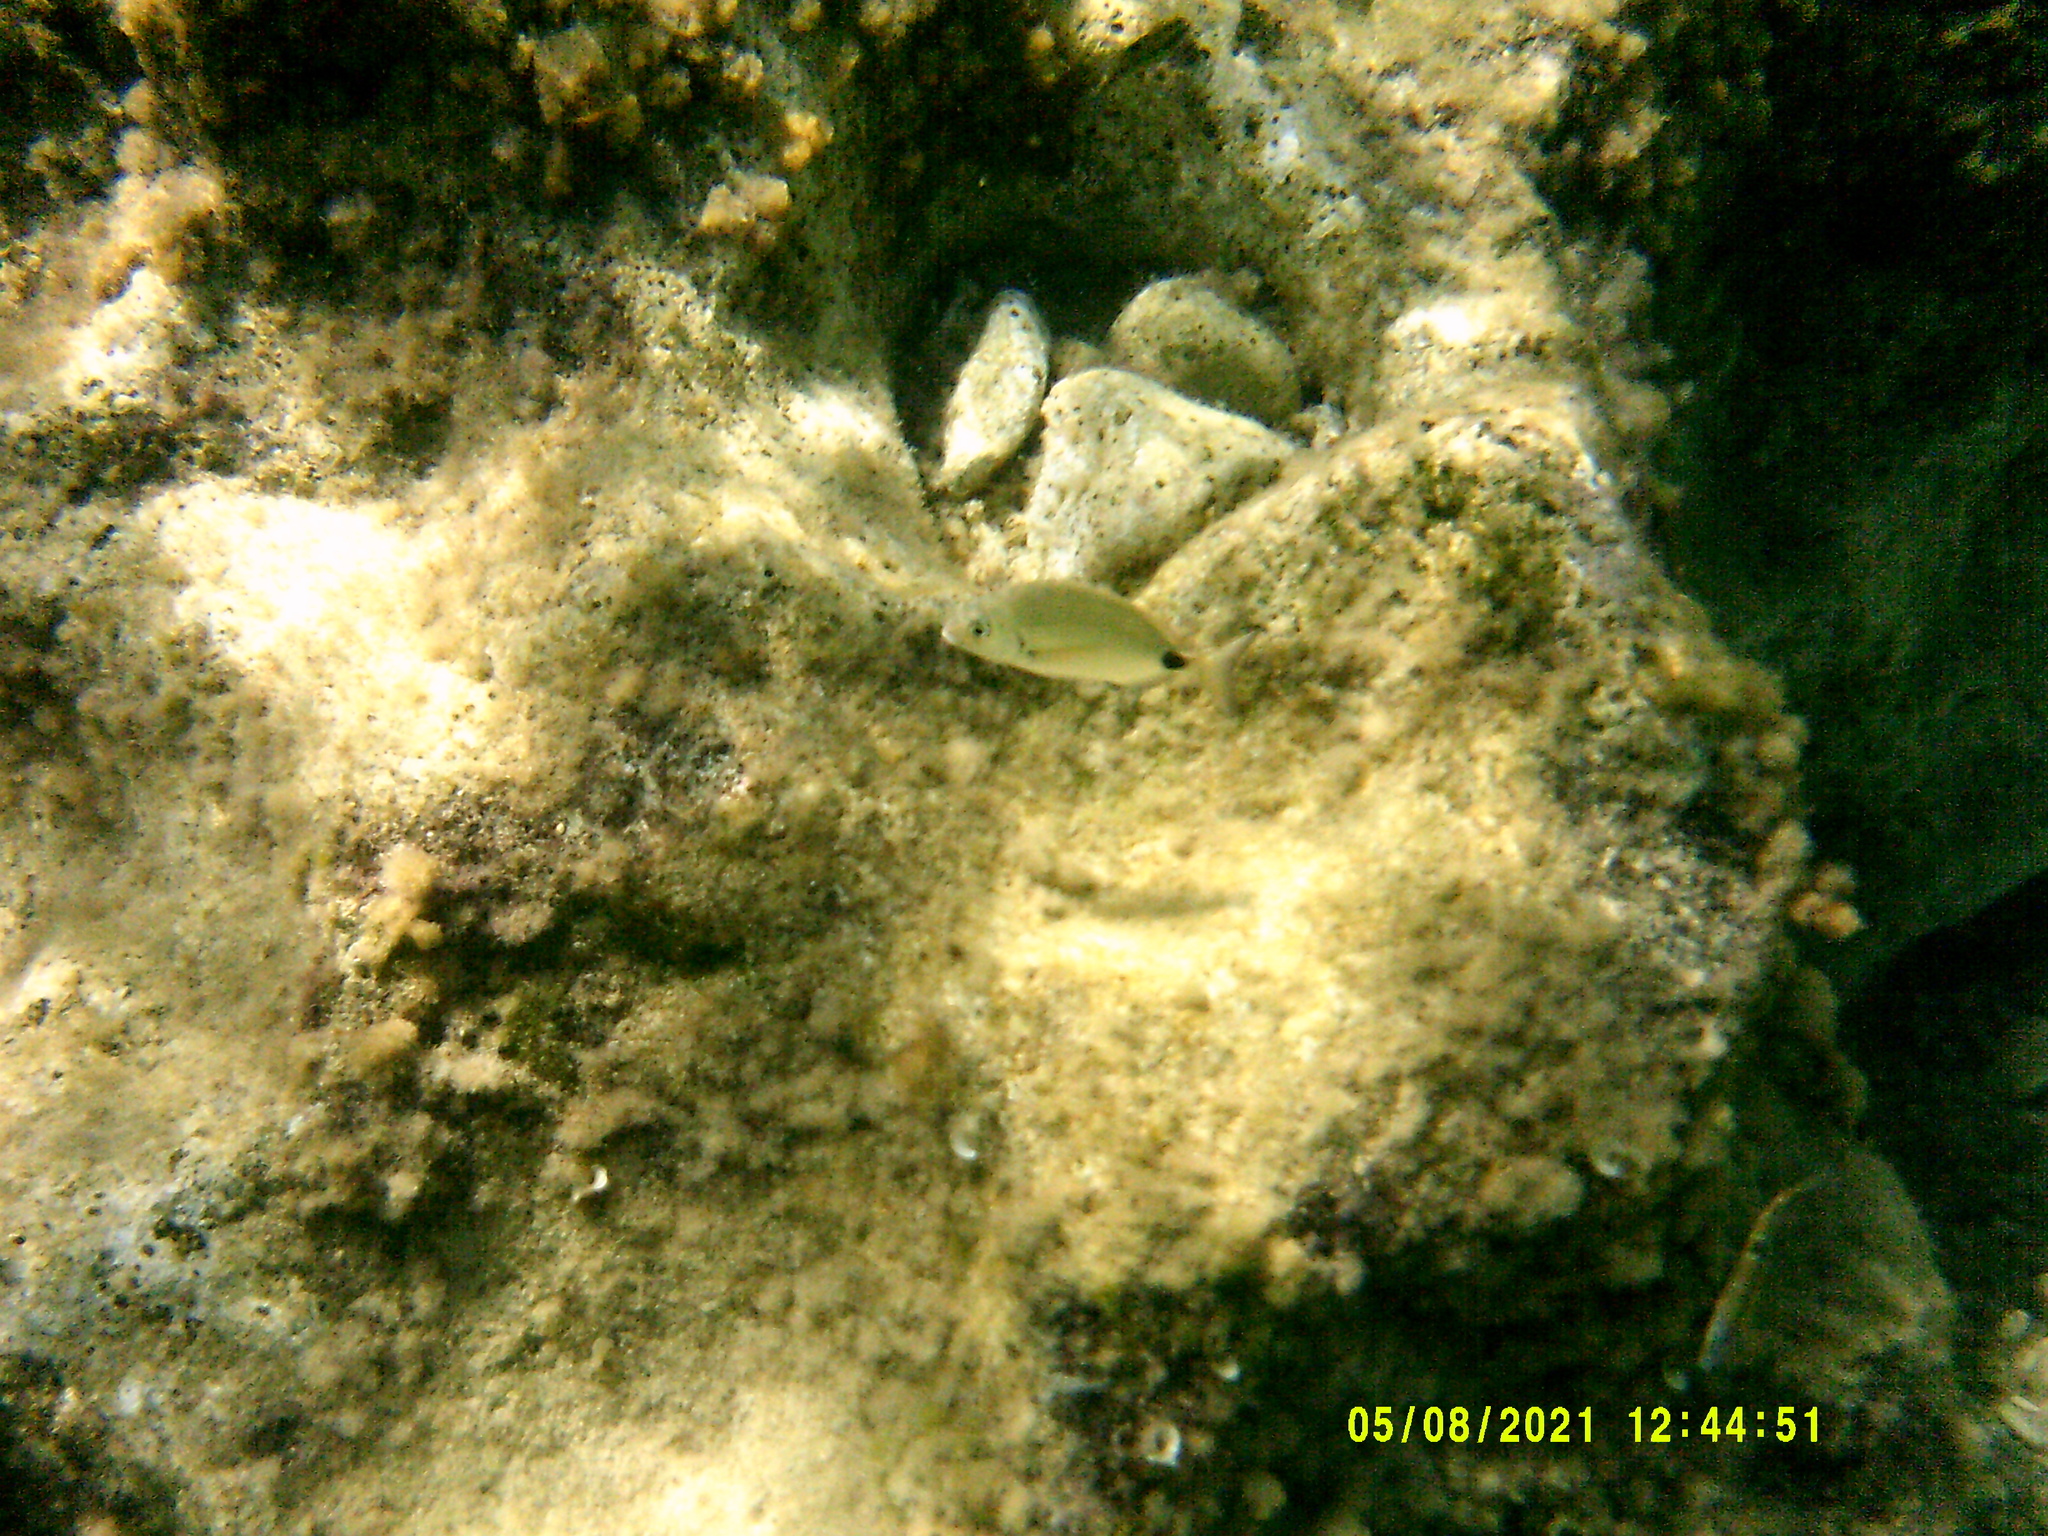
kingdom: Animalia
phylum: Chordata
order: Perciformes
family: Sparidae
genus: Diplodus
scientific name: Diplodus sargus
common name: White seabream
